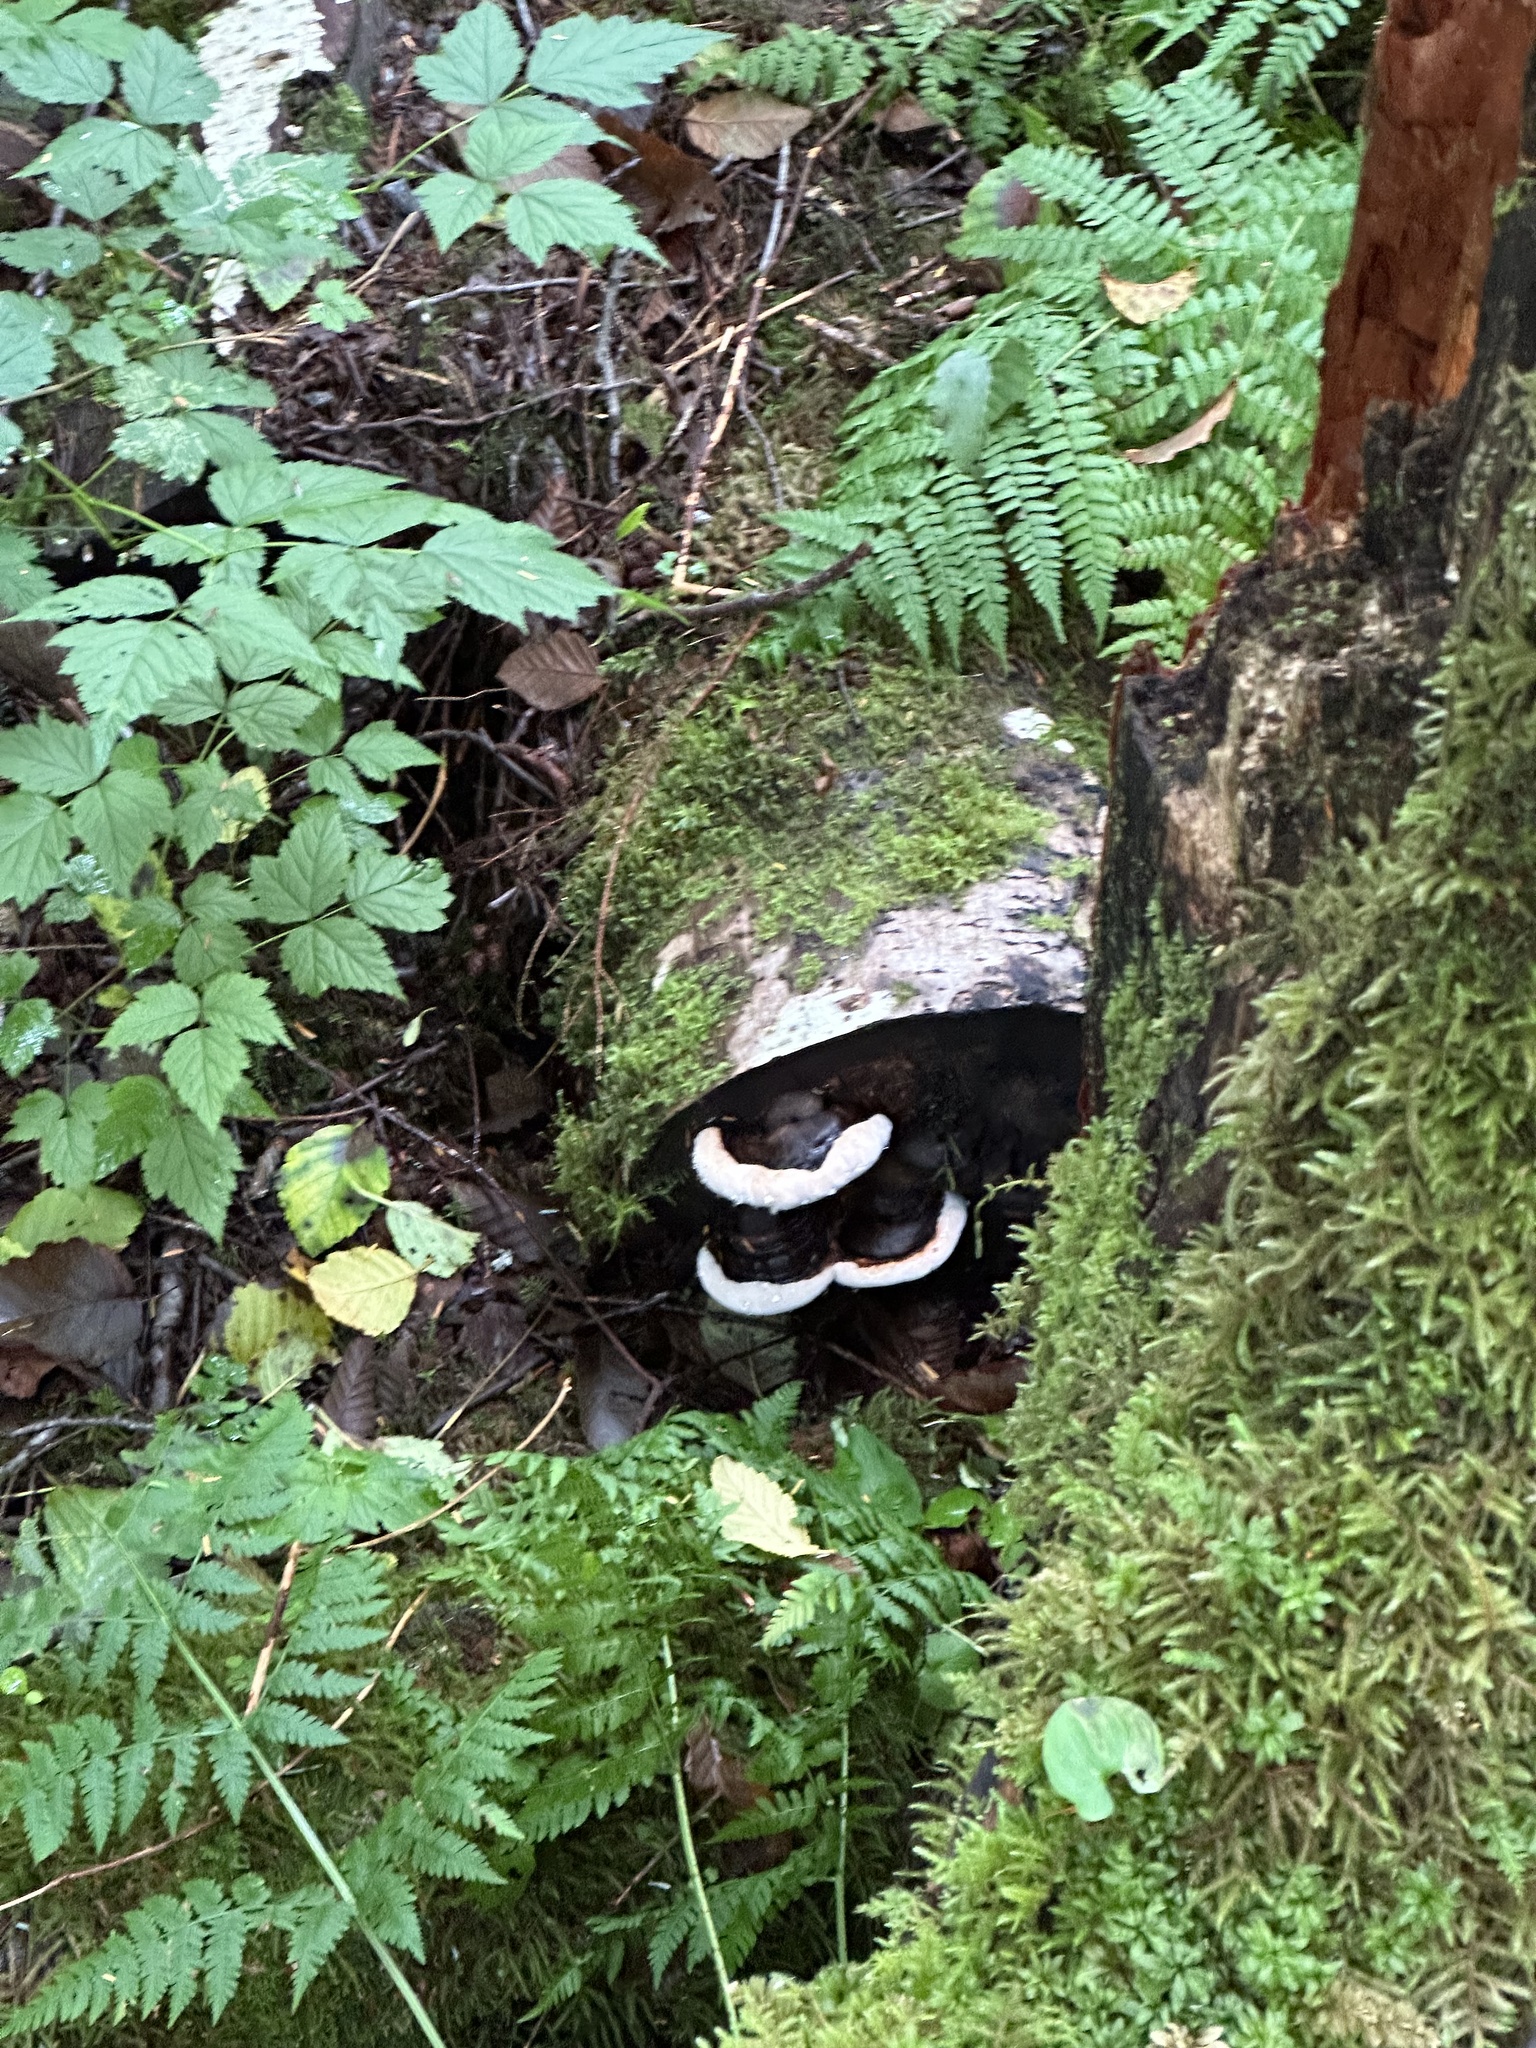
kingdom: Fungi
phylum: Basidiomycota
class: Agaricomycetes
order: Polyporales
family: Fomitopsidaceae
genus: Fomitopsis
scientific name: Fomitopsis ochracea
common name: American brown fomitopsis
